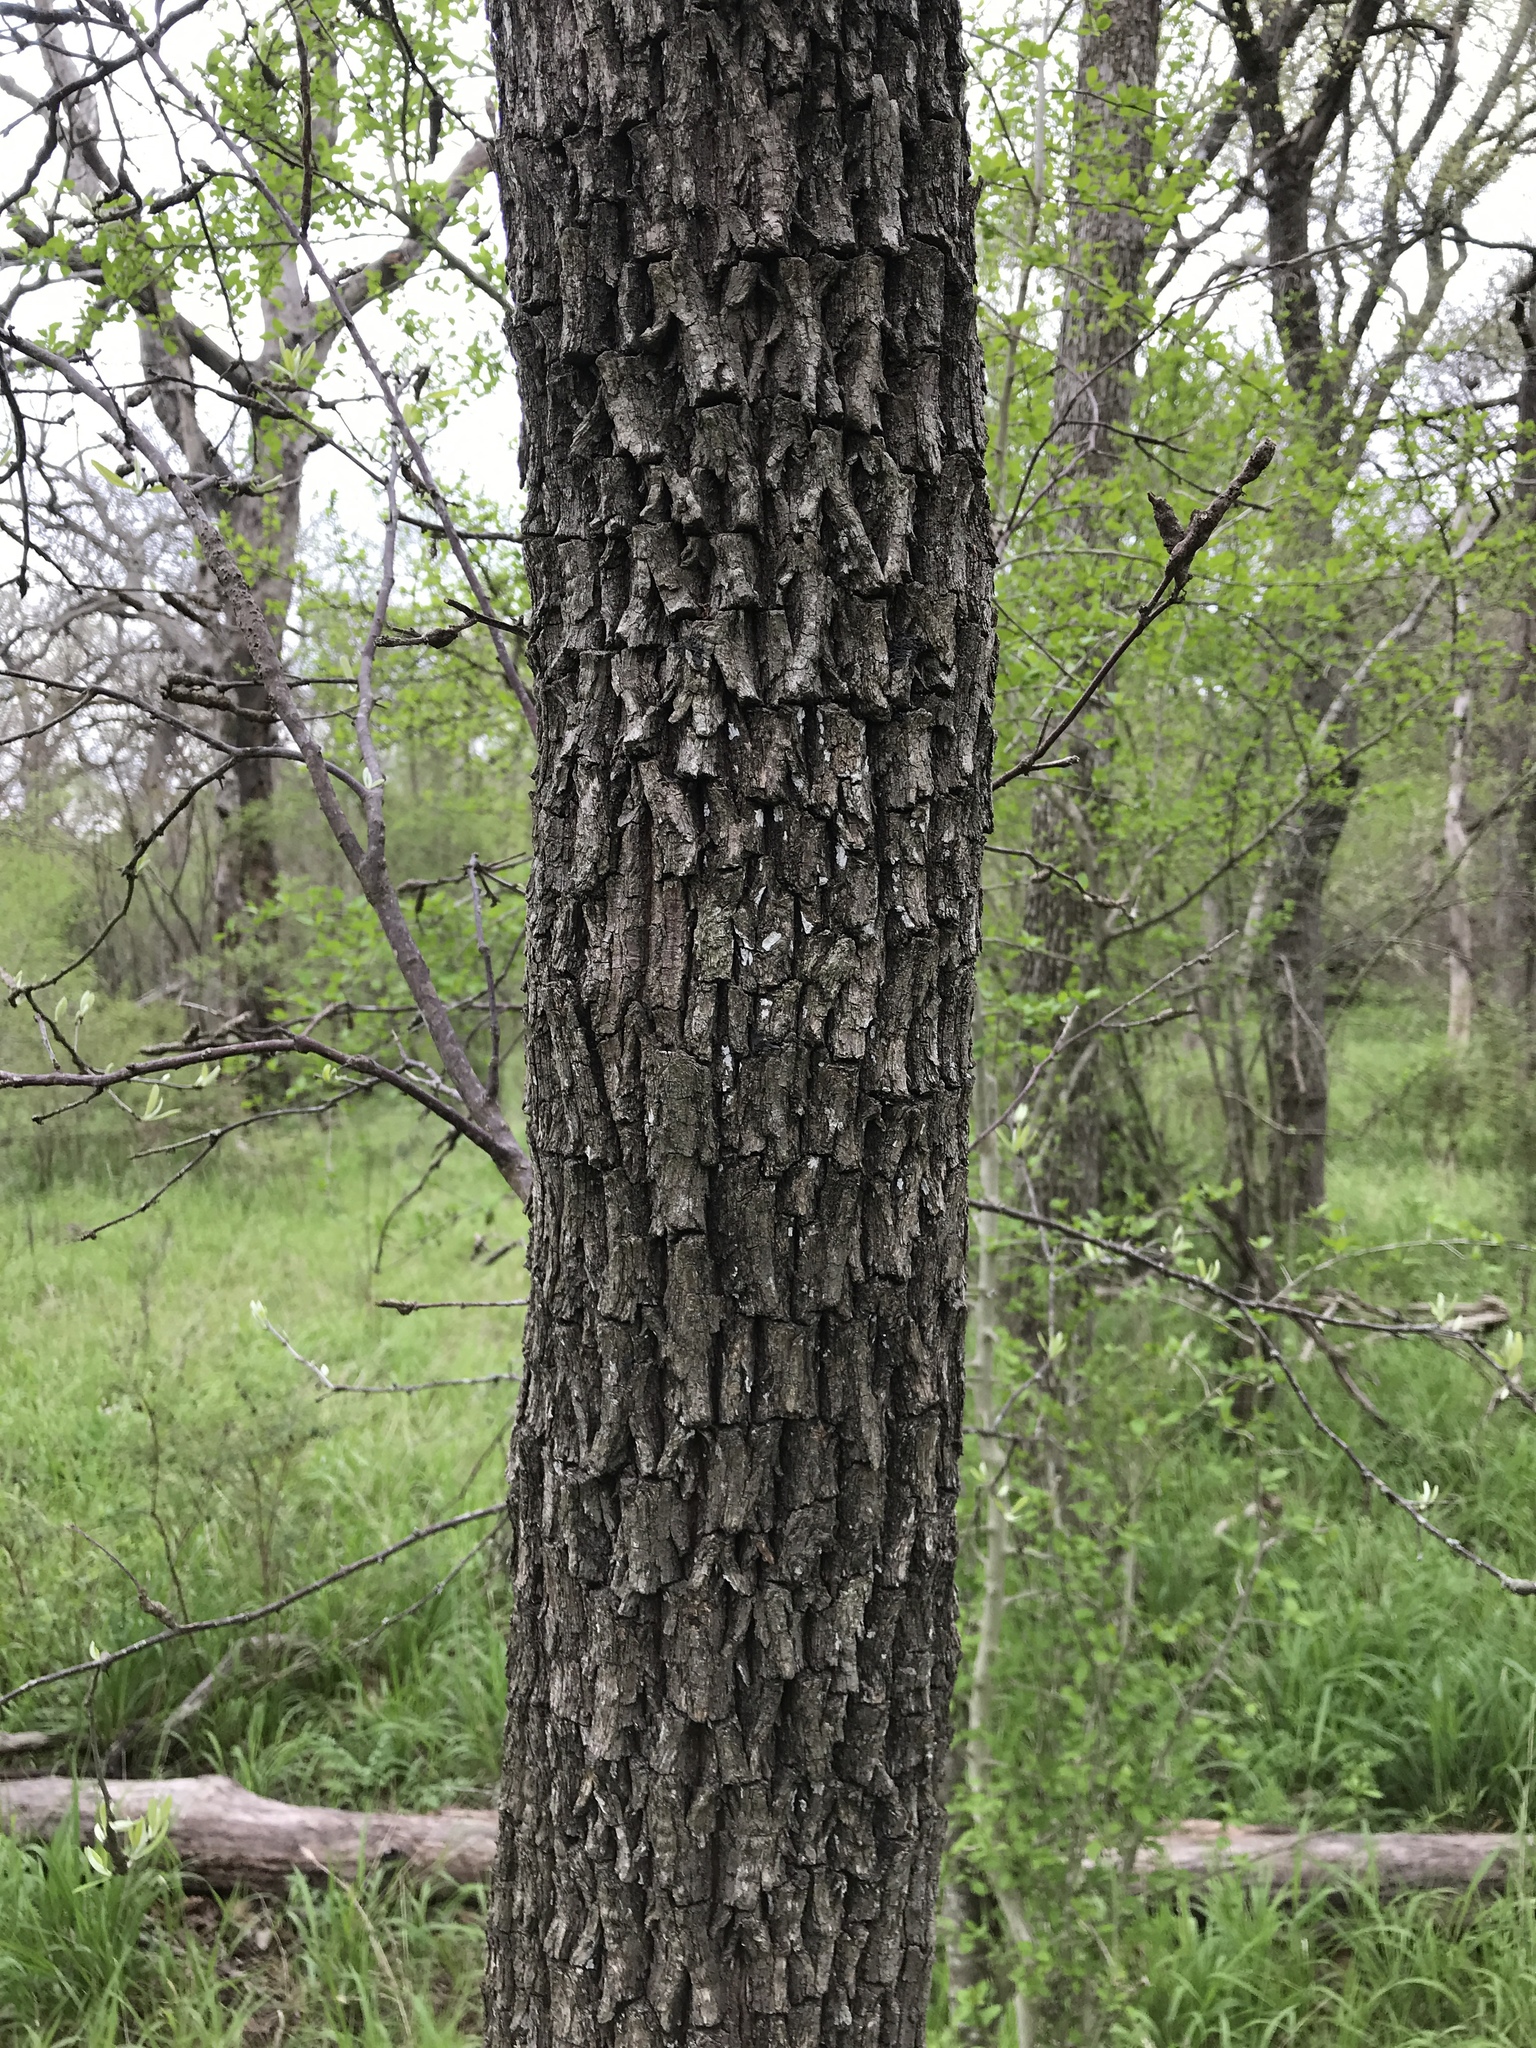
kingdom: Plantae
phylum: Tracheophyta
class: Magnoliopsida
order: Ericales
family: Sapotaceae
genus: Sideroxylon
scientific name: Sideroxylon lanuginosum
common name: Chittamwood
